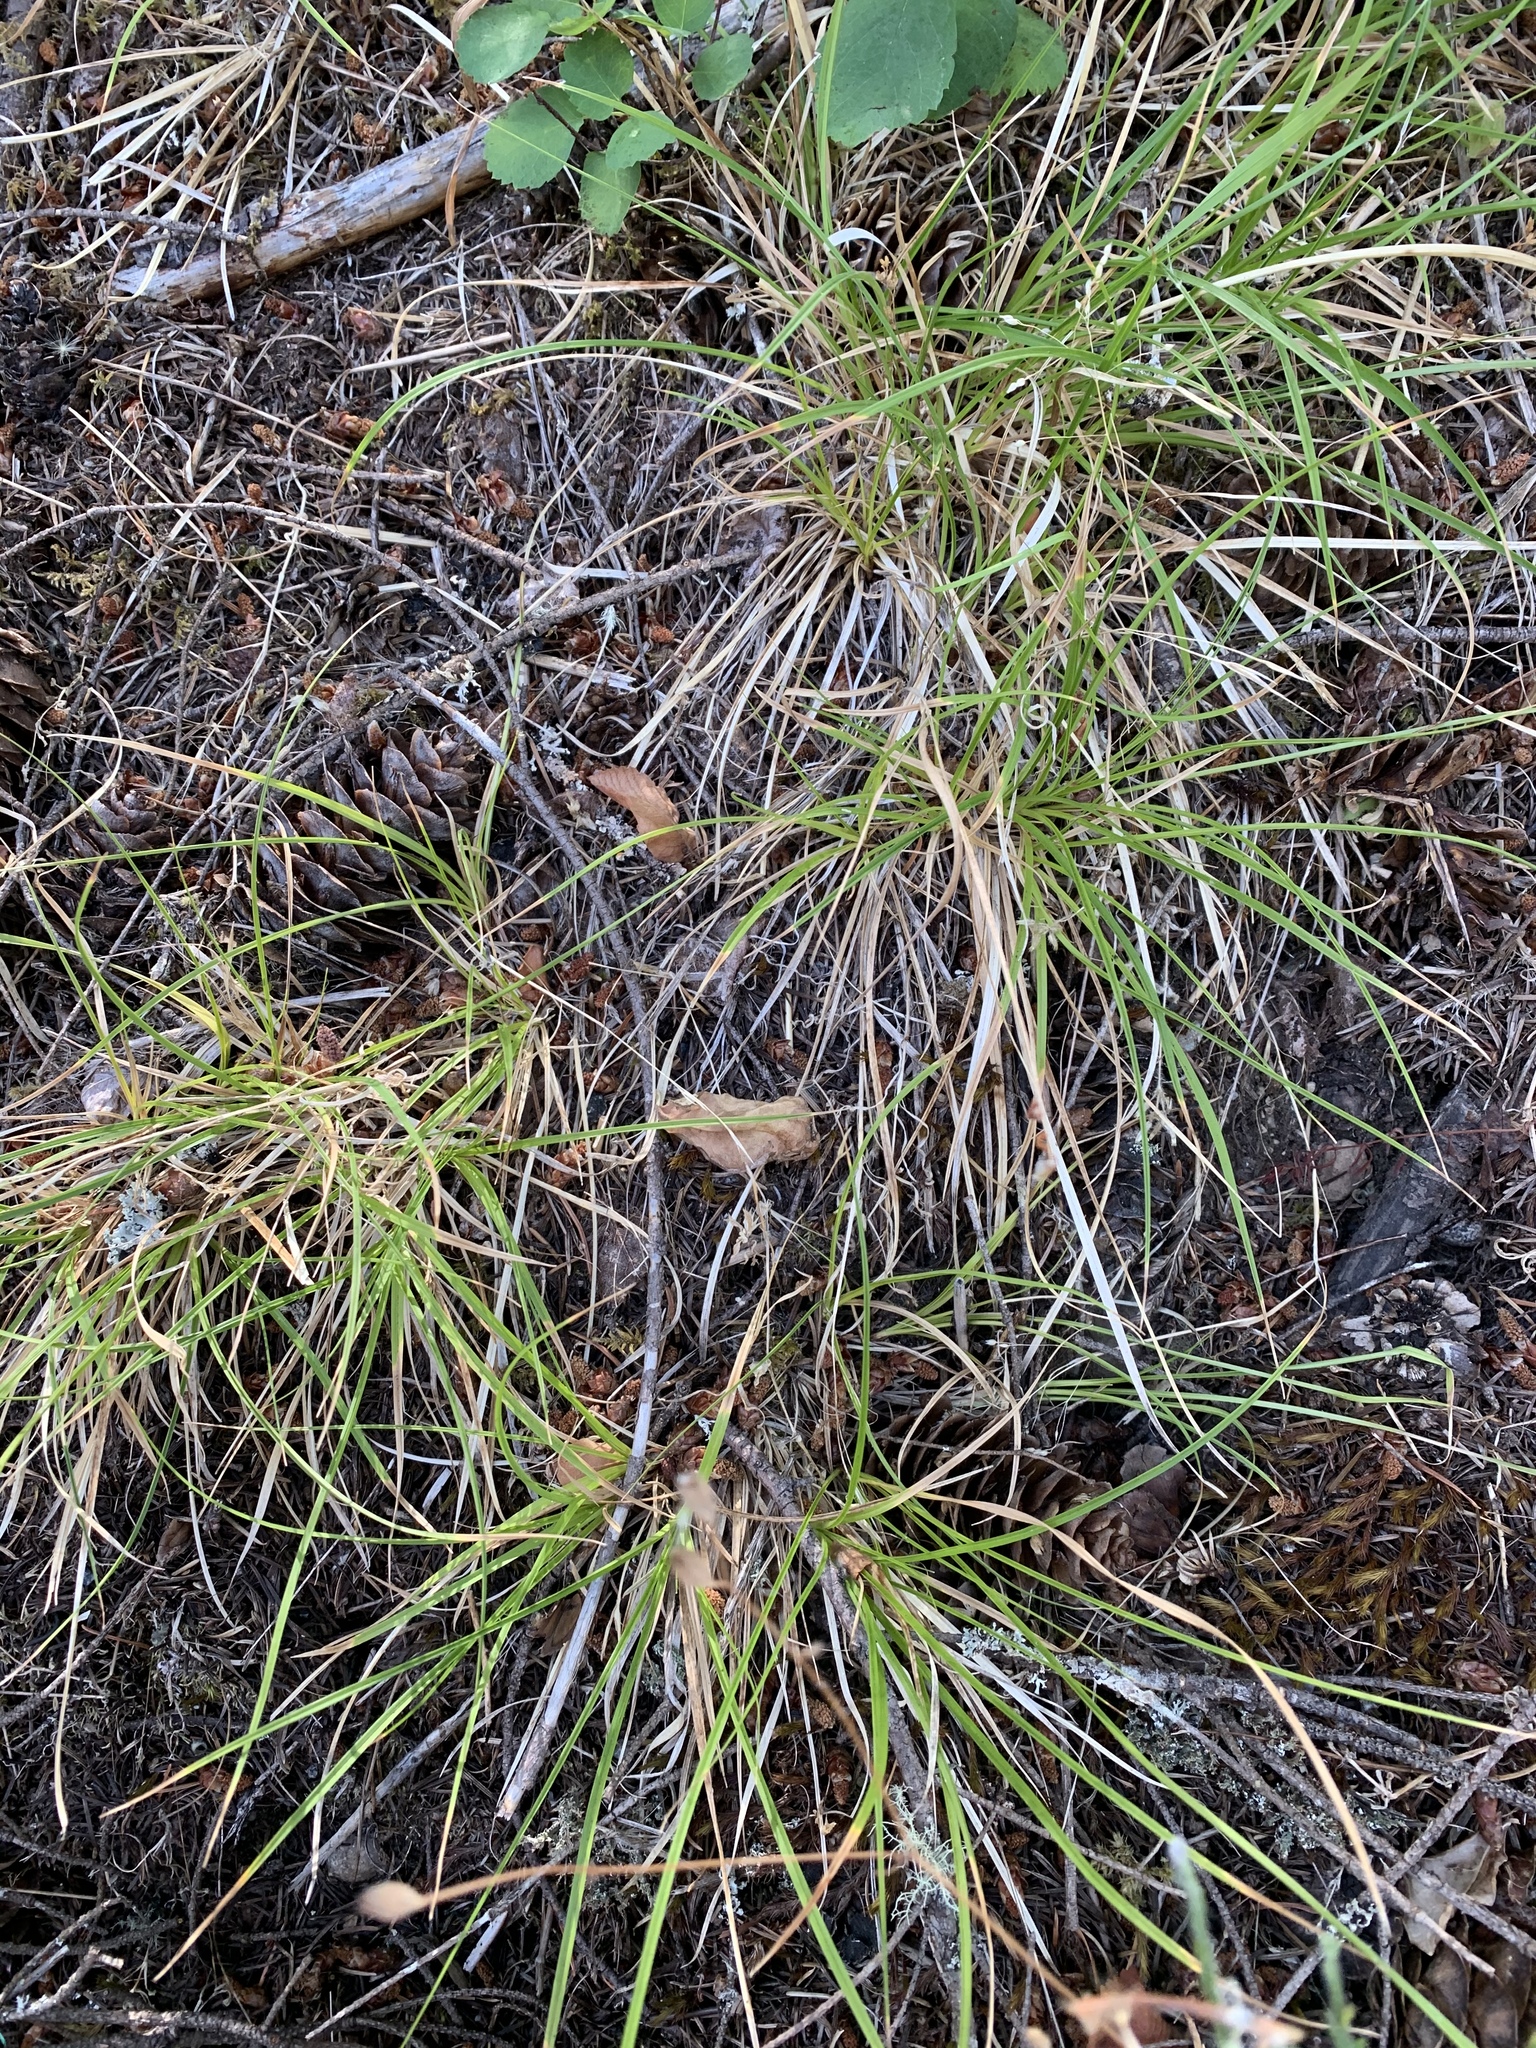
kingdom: Plantae
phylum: Tracheophyta
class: Liliopsida
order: Poales
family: Cyperaceae
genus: Carex
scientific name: Carex inops
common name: Long-stolon sedge
